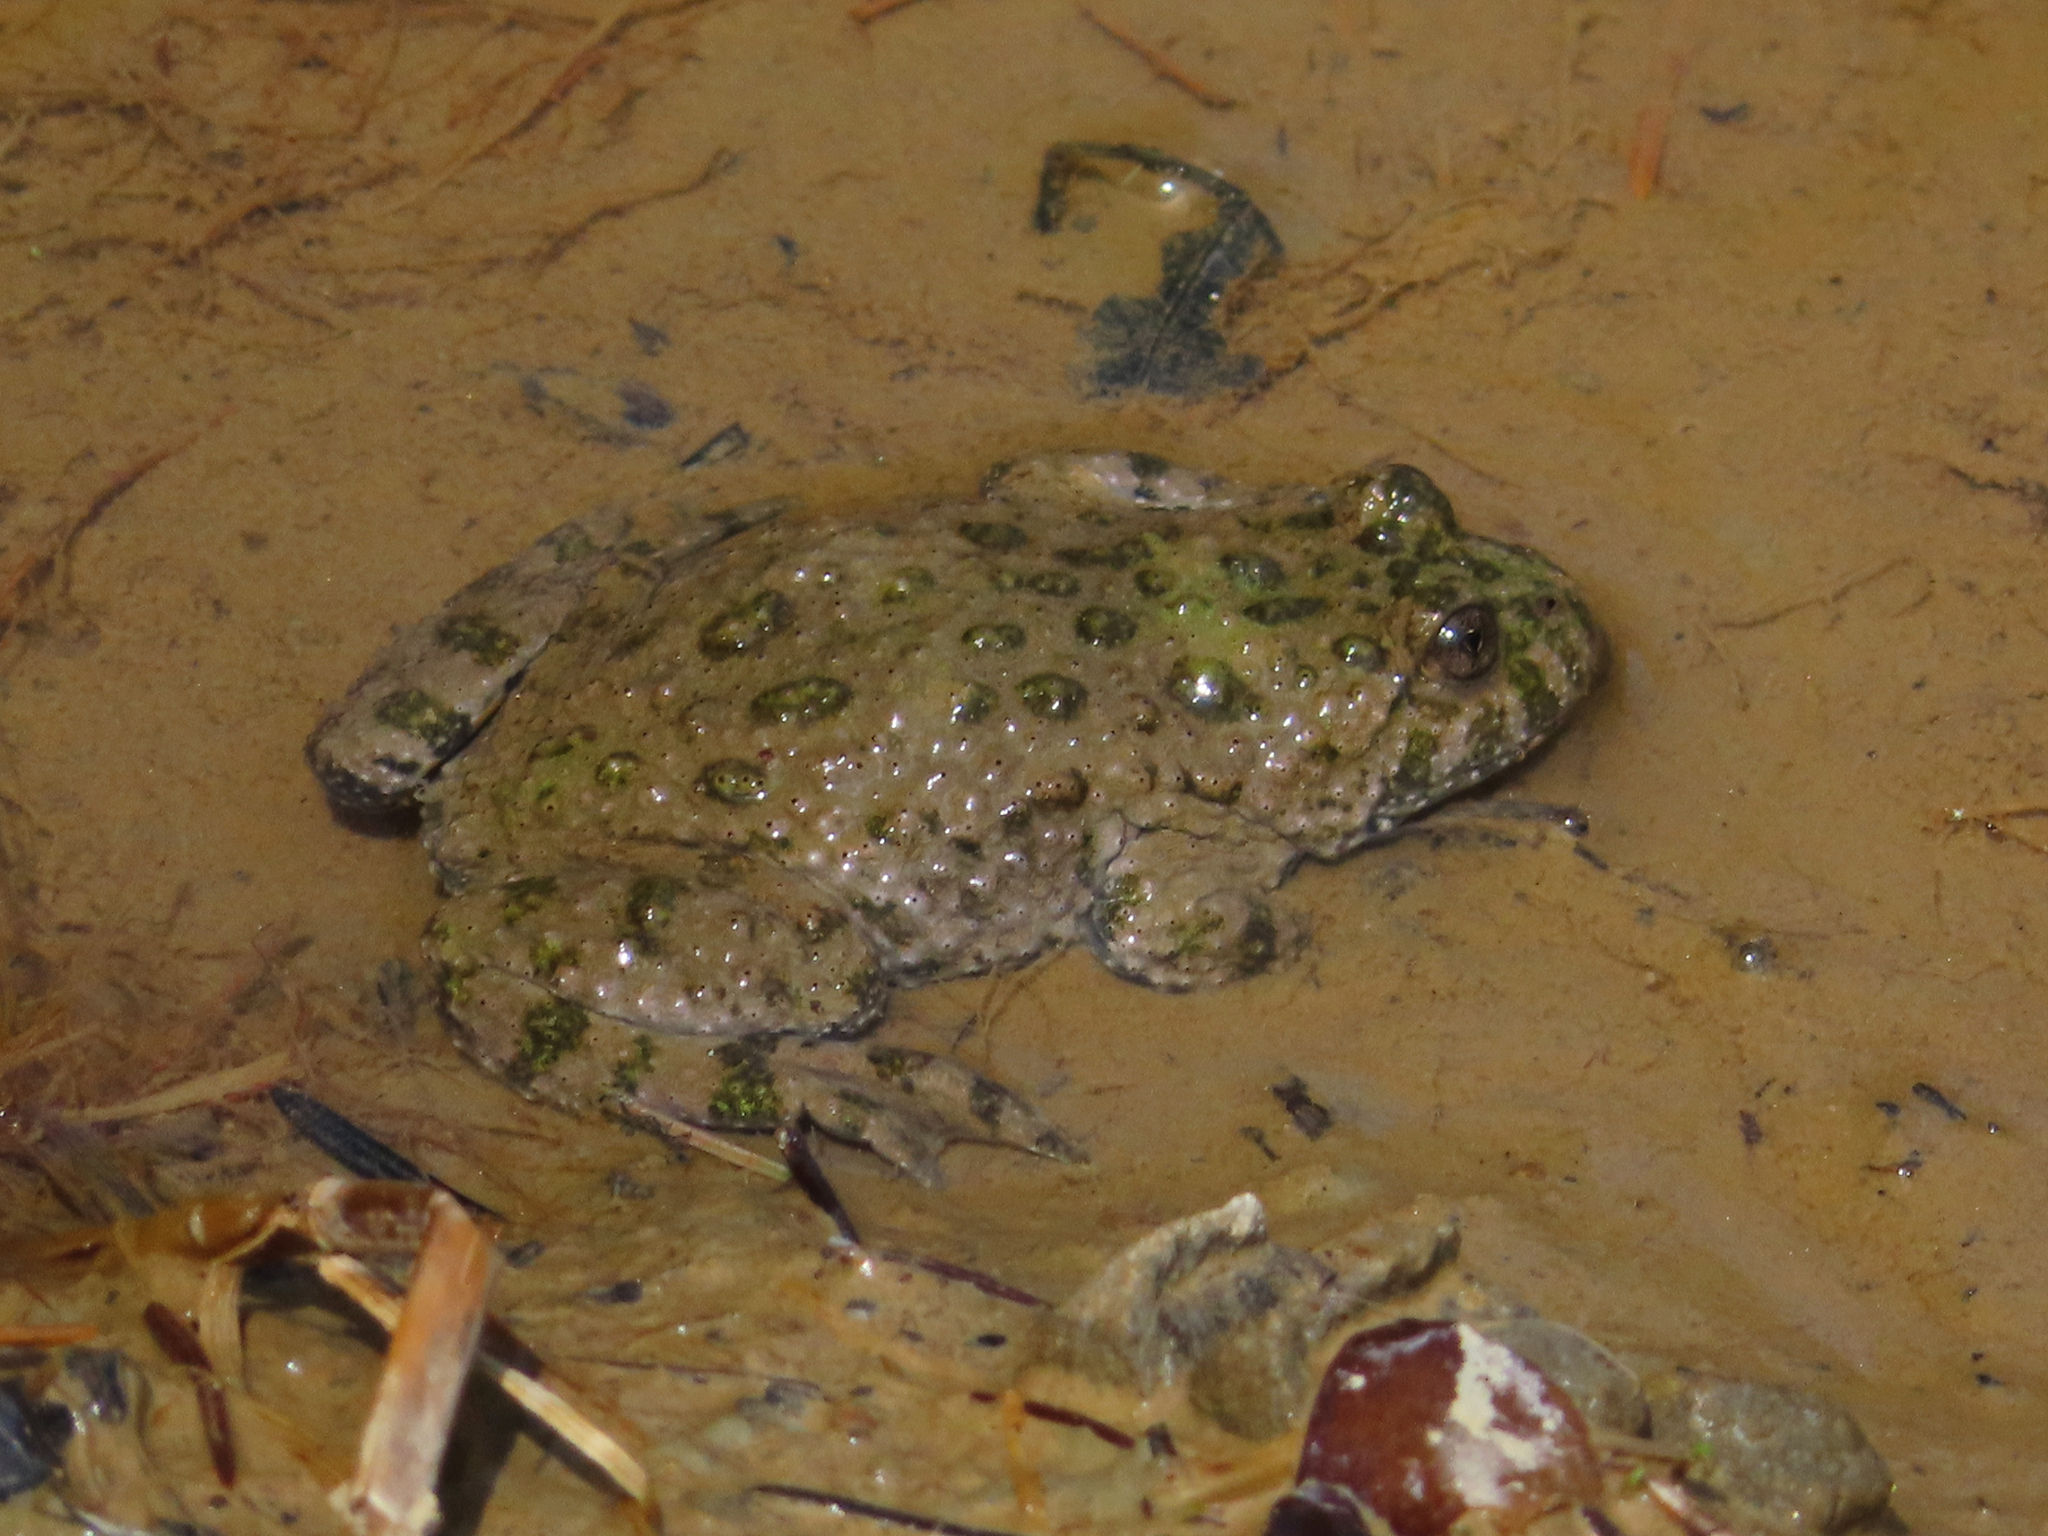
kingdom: Animalia
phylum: Chordata
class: Amphibia
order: Anura
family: Bombinatoridae
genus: Bombina
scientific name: Bombina variegata
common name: Yellow-bellied toad
